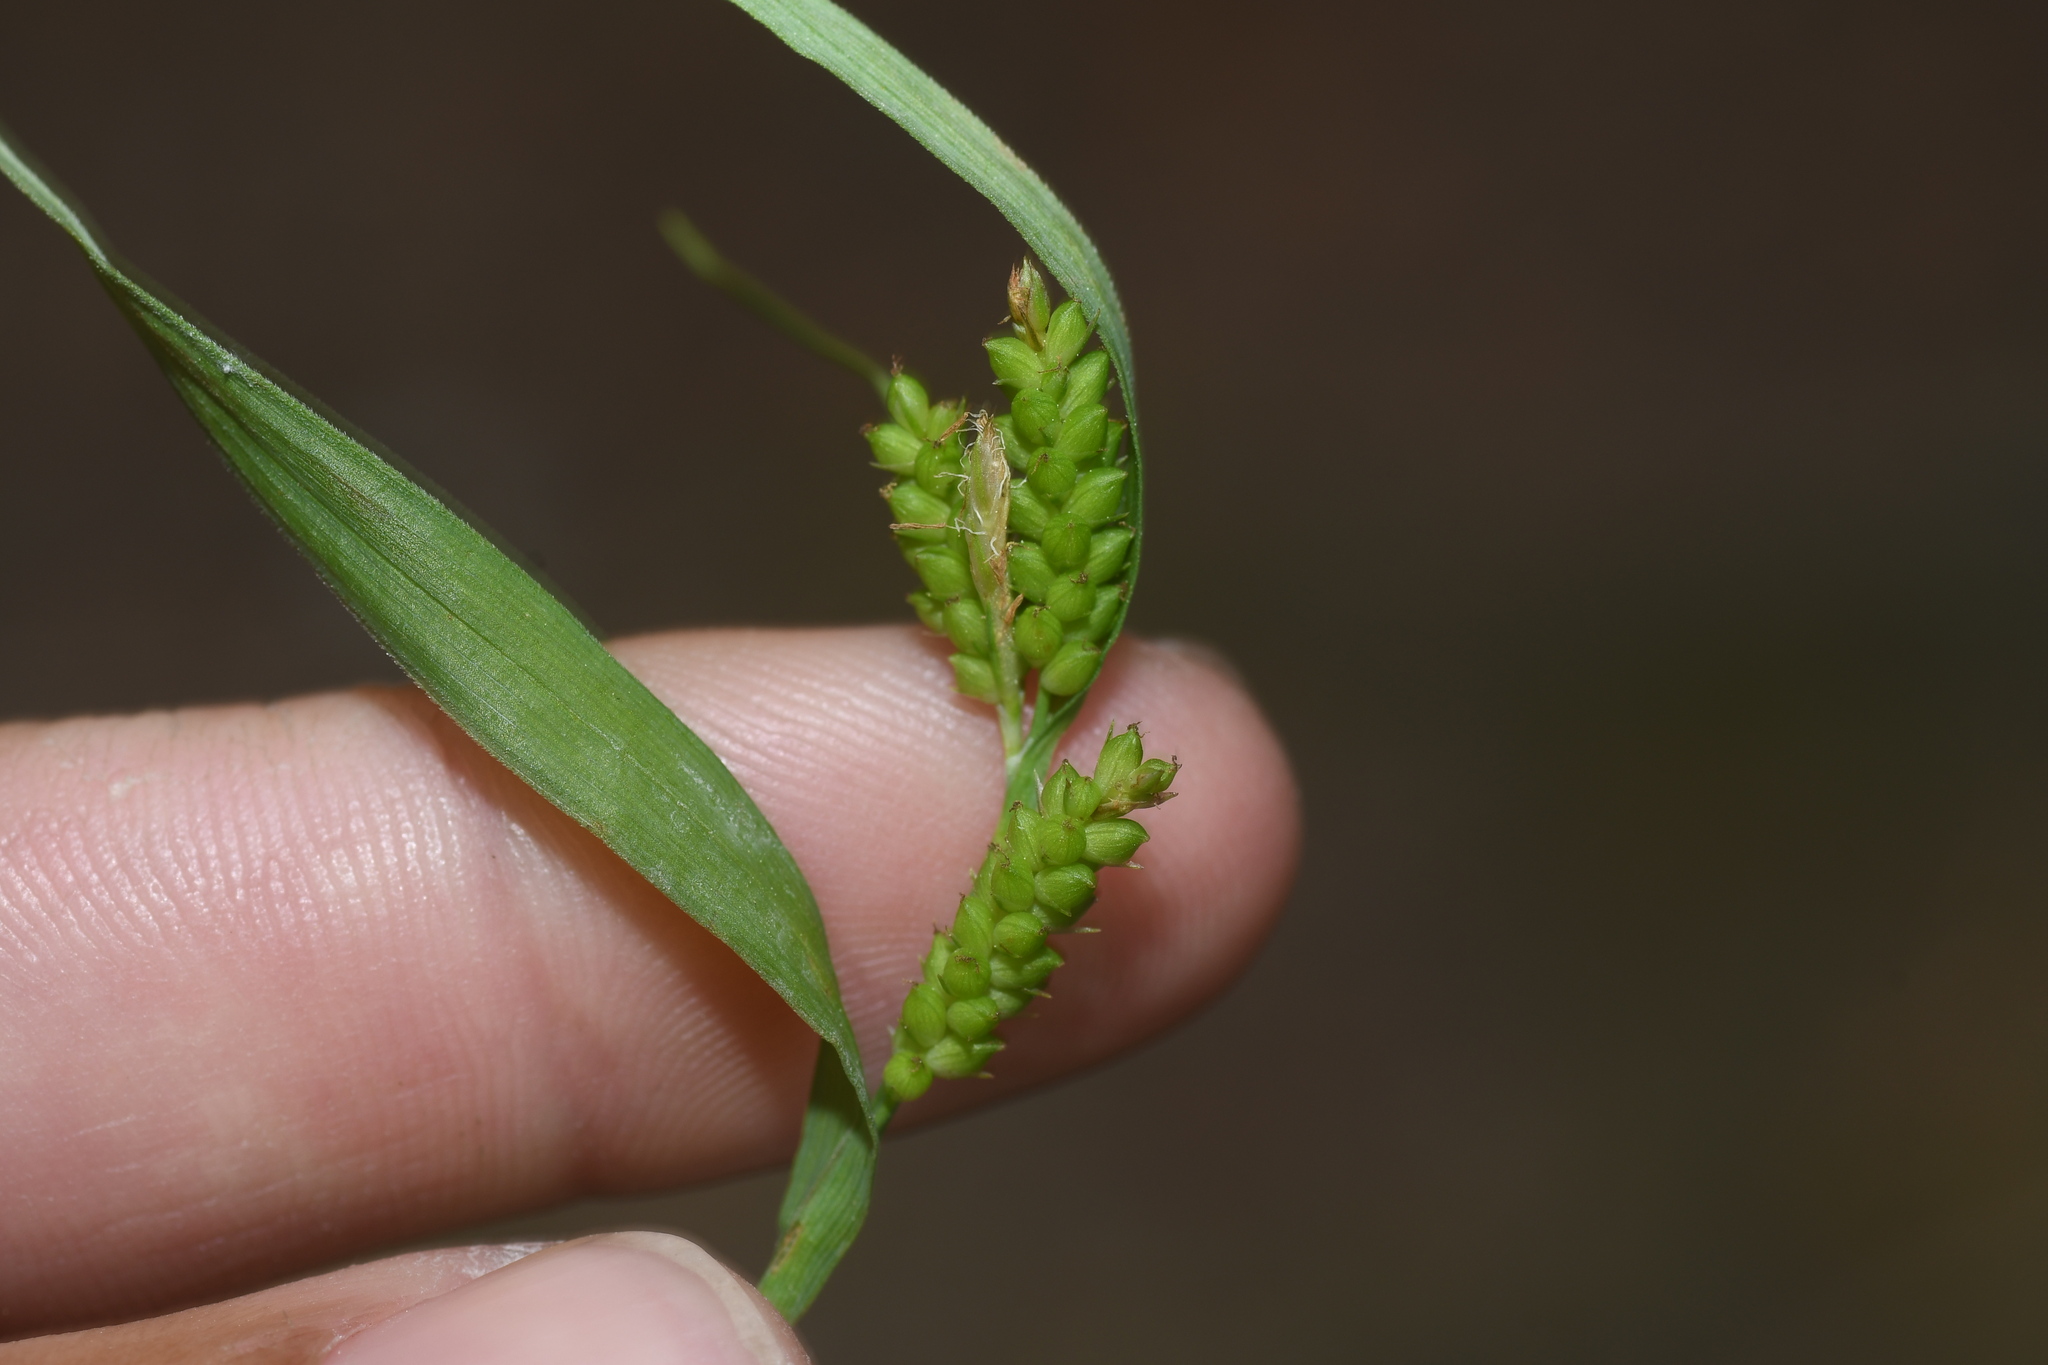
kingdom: Plantae
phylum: Tracheophyta
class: Liliopsida
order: Poales
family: Cyperaceae
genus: Carex
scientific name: Carex granularis
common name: Granular sedge
